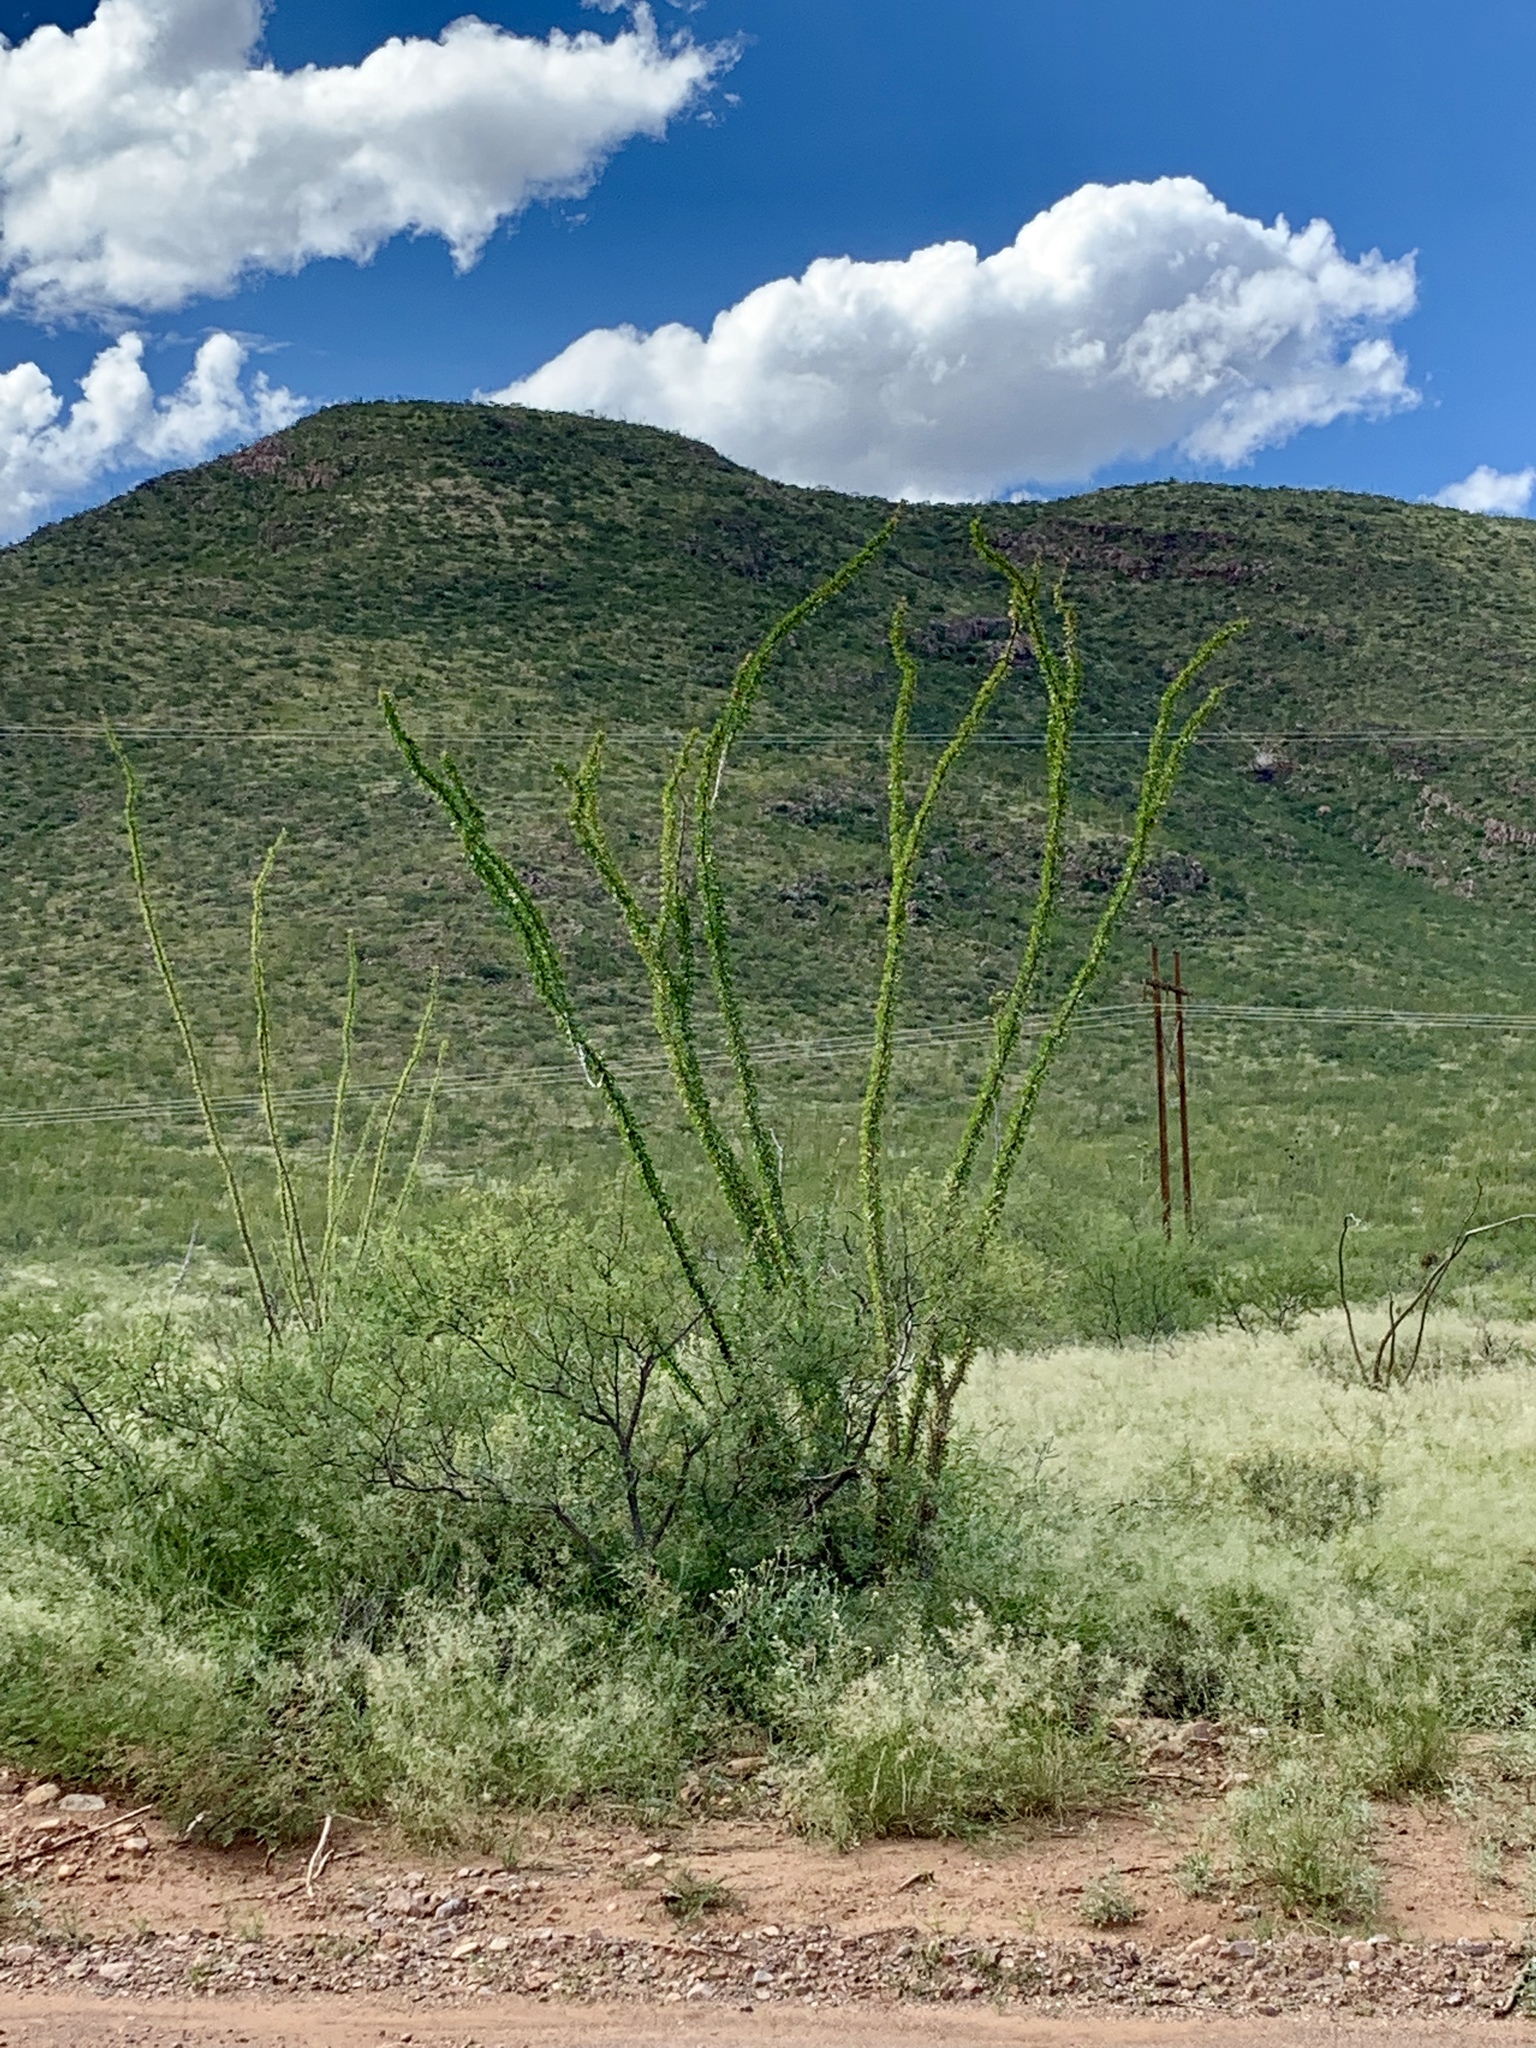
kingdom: Plantae
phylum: Tracheophyta
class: Magnoliopsida
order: Ericales
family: Fouquieriaceae
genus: Fouquieria
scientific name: Fouquieria splendens
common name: Vine-cactus
